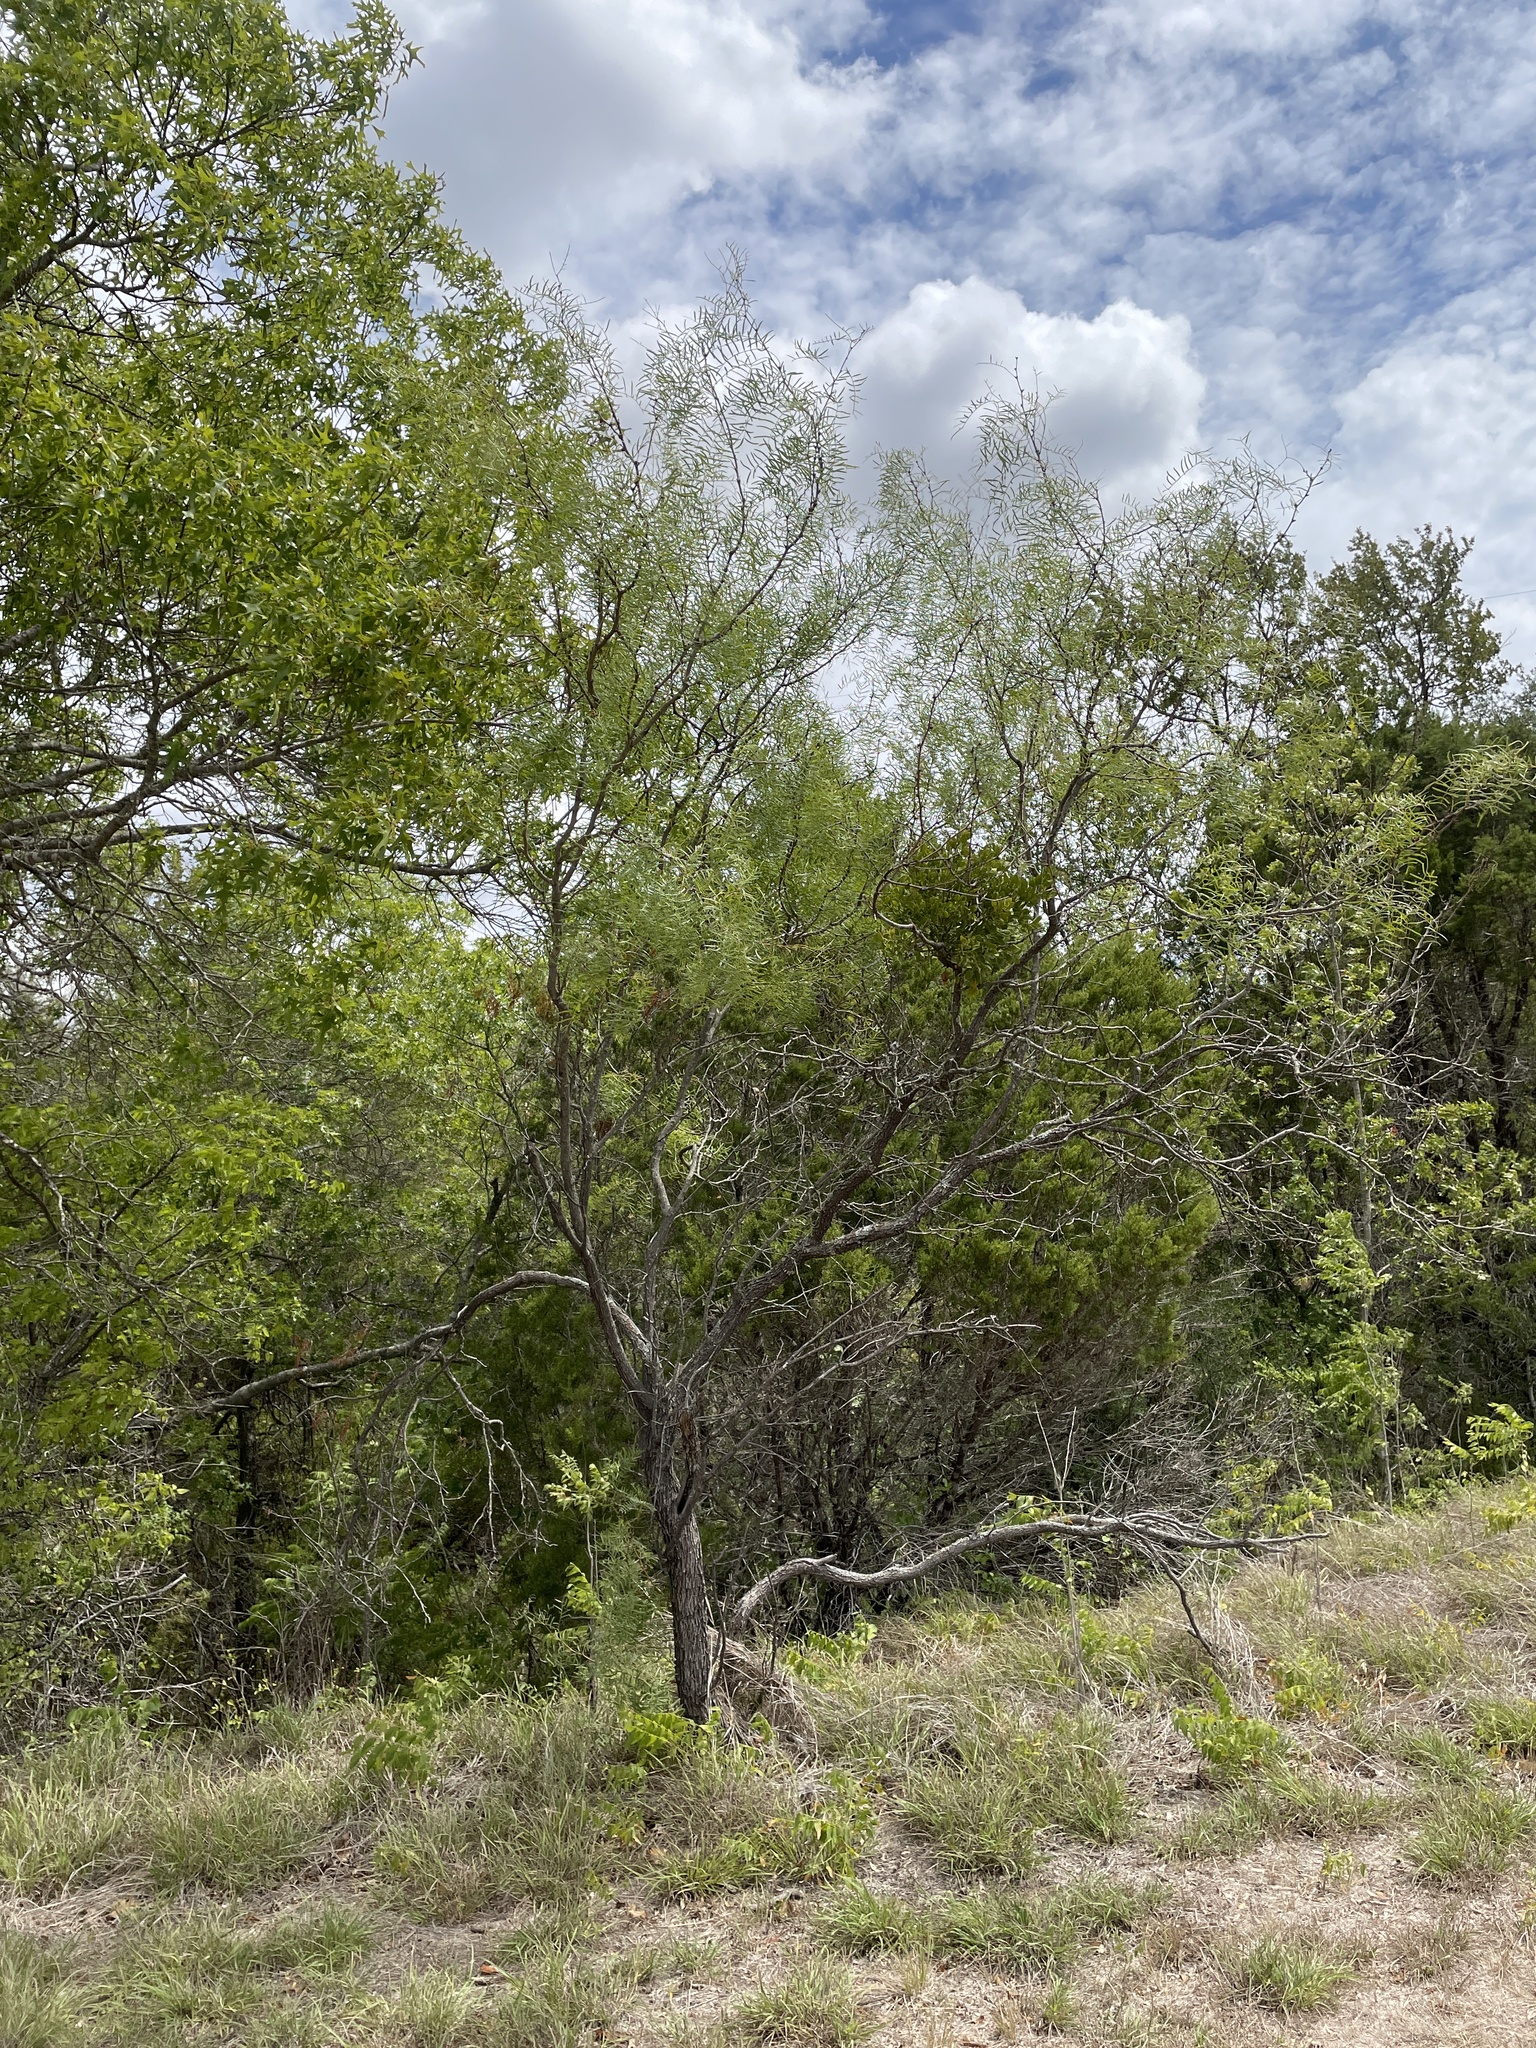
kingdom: Plantae
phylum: Tracheophyta
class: Magnoliopsida
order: Fabales
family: Fabaceae
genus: Prosopis
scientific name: Prosopis glandulosa
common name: Honey mesquite
